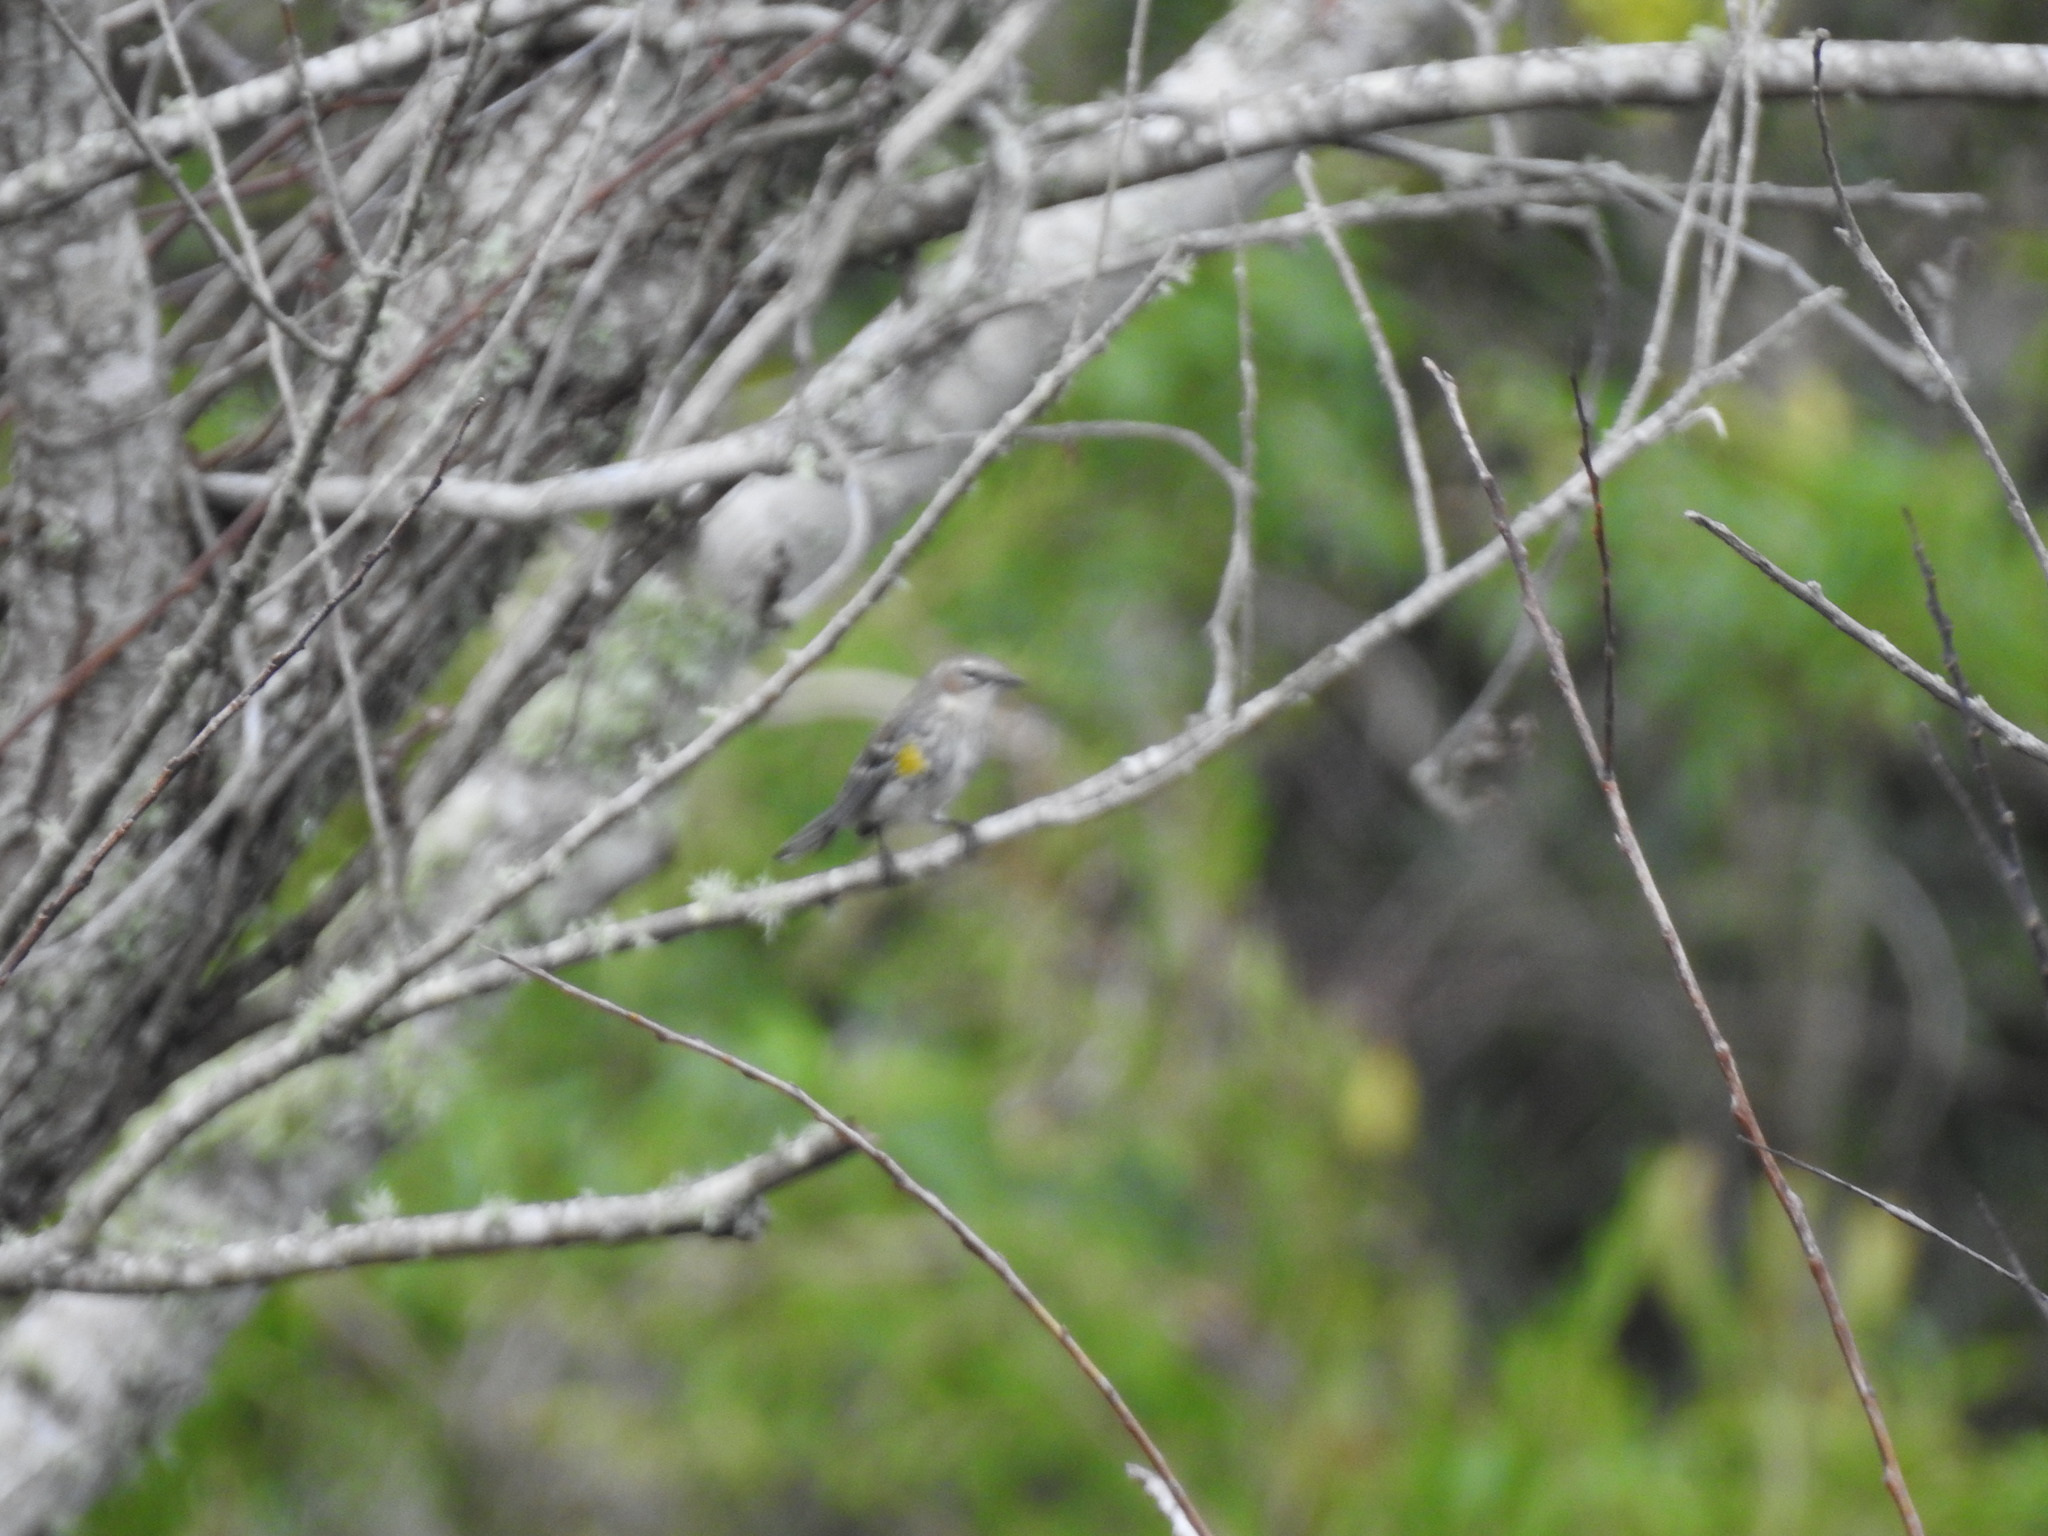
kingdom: Animalia
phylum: Chordata
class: Aves
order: Passeriformes
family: Parulidae
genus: Setophaga
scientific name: Setophaga coronata
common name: Myrtle warbler
